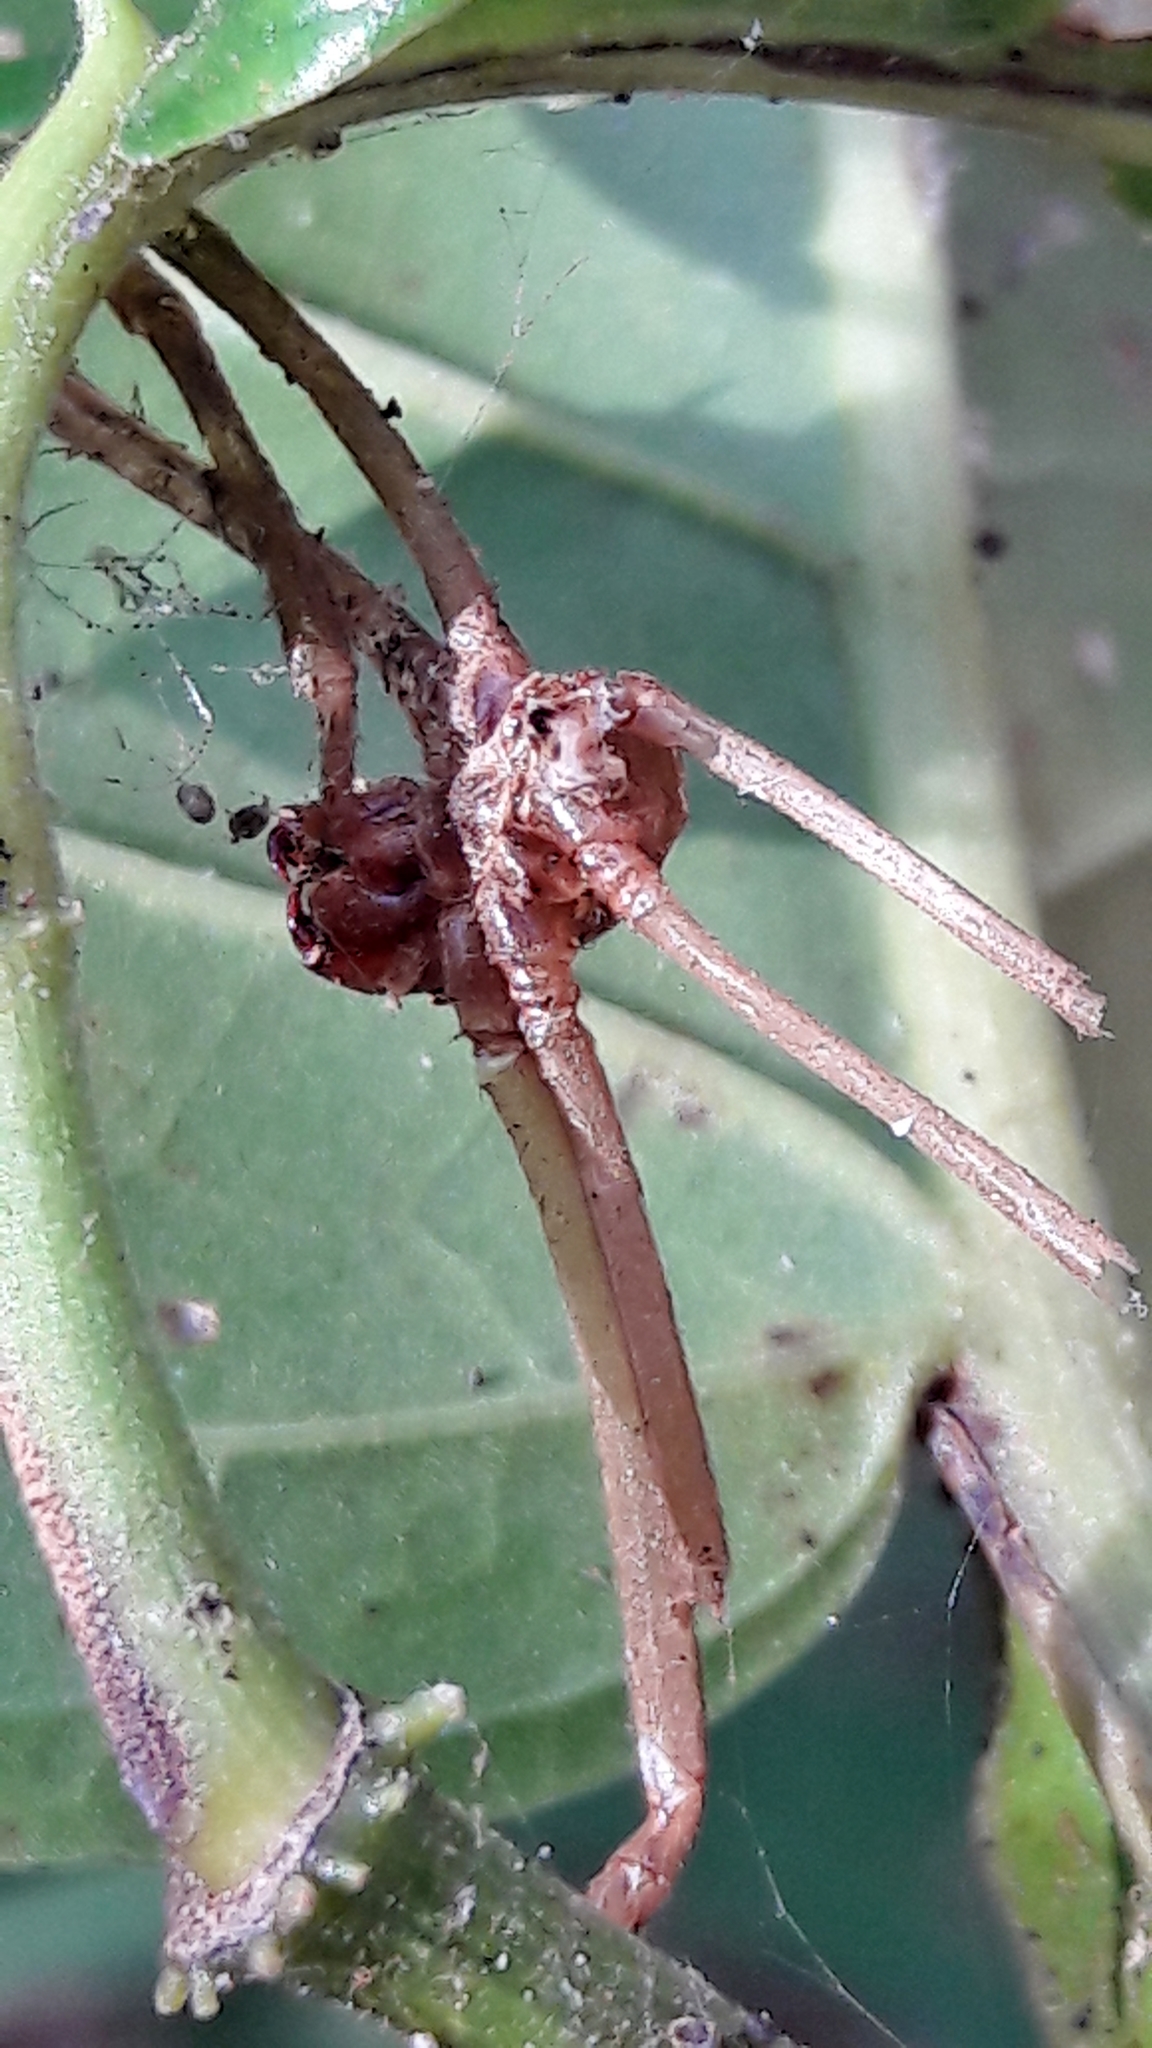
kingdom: Animalia
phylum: Arthropoda
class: Arachnida
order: Araneae
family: Araneidae
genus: Trichonephila
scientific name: Trichonephila clavipes
